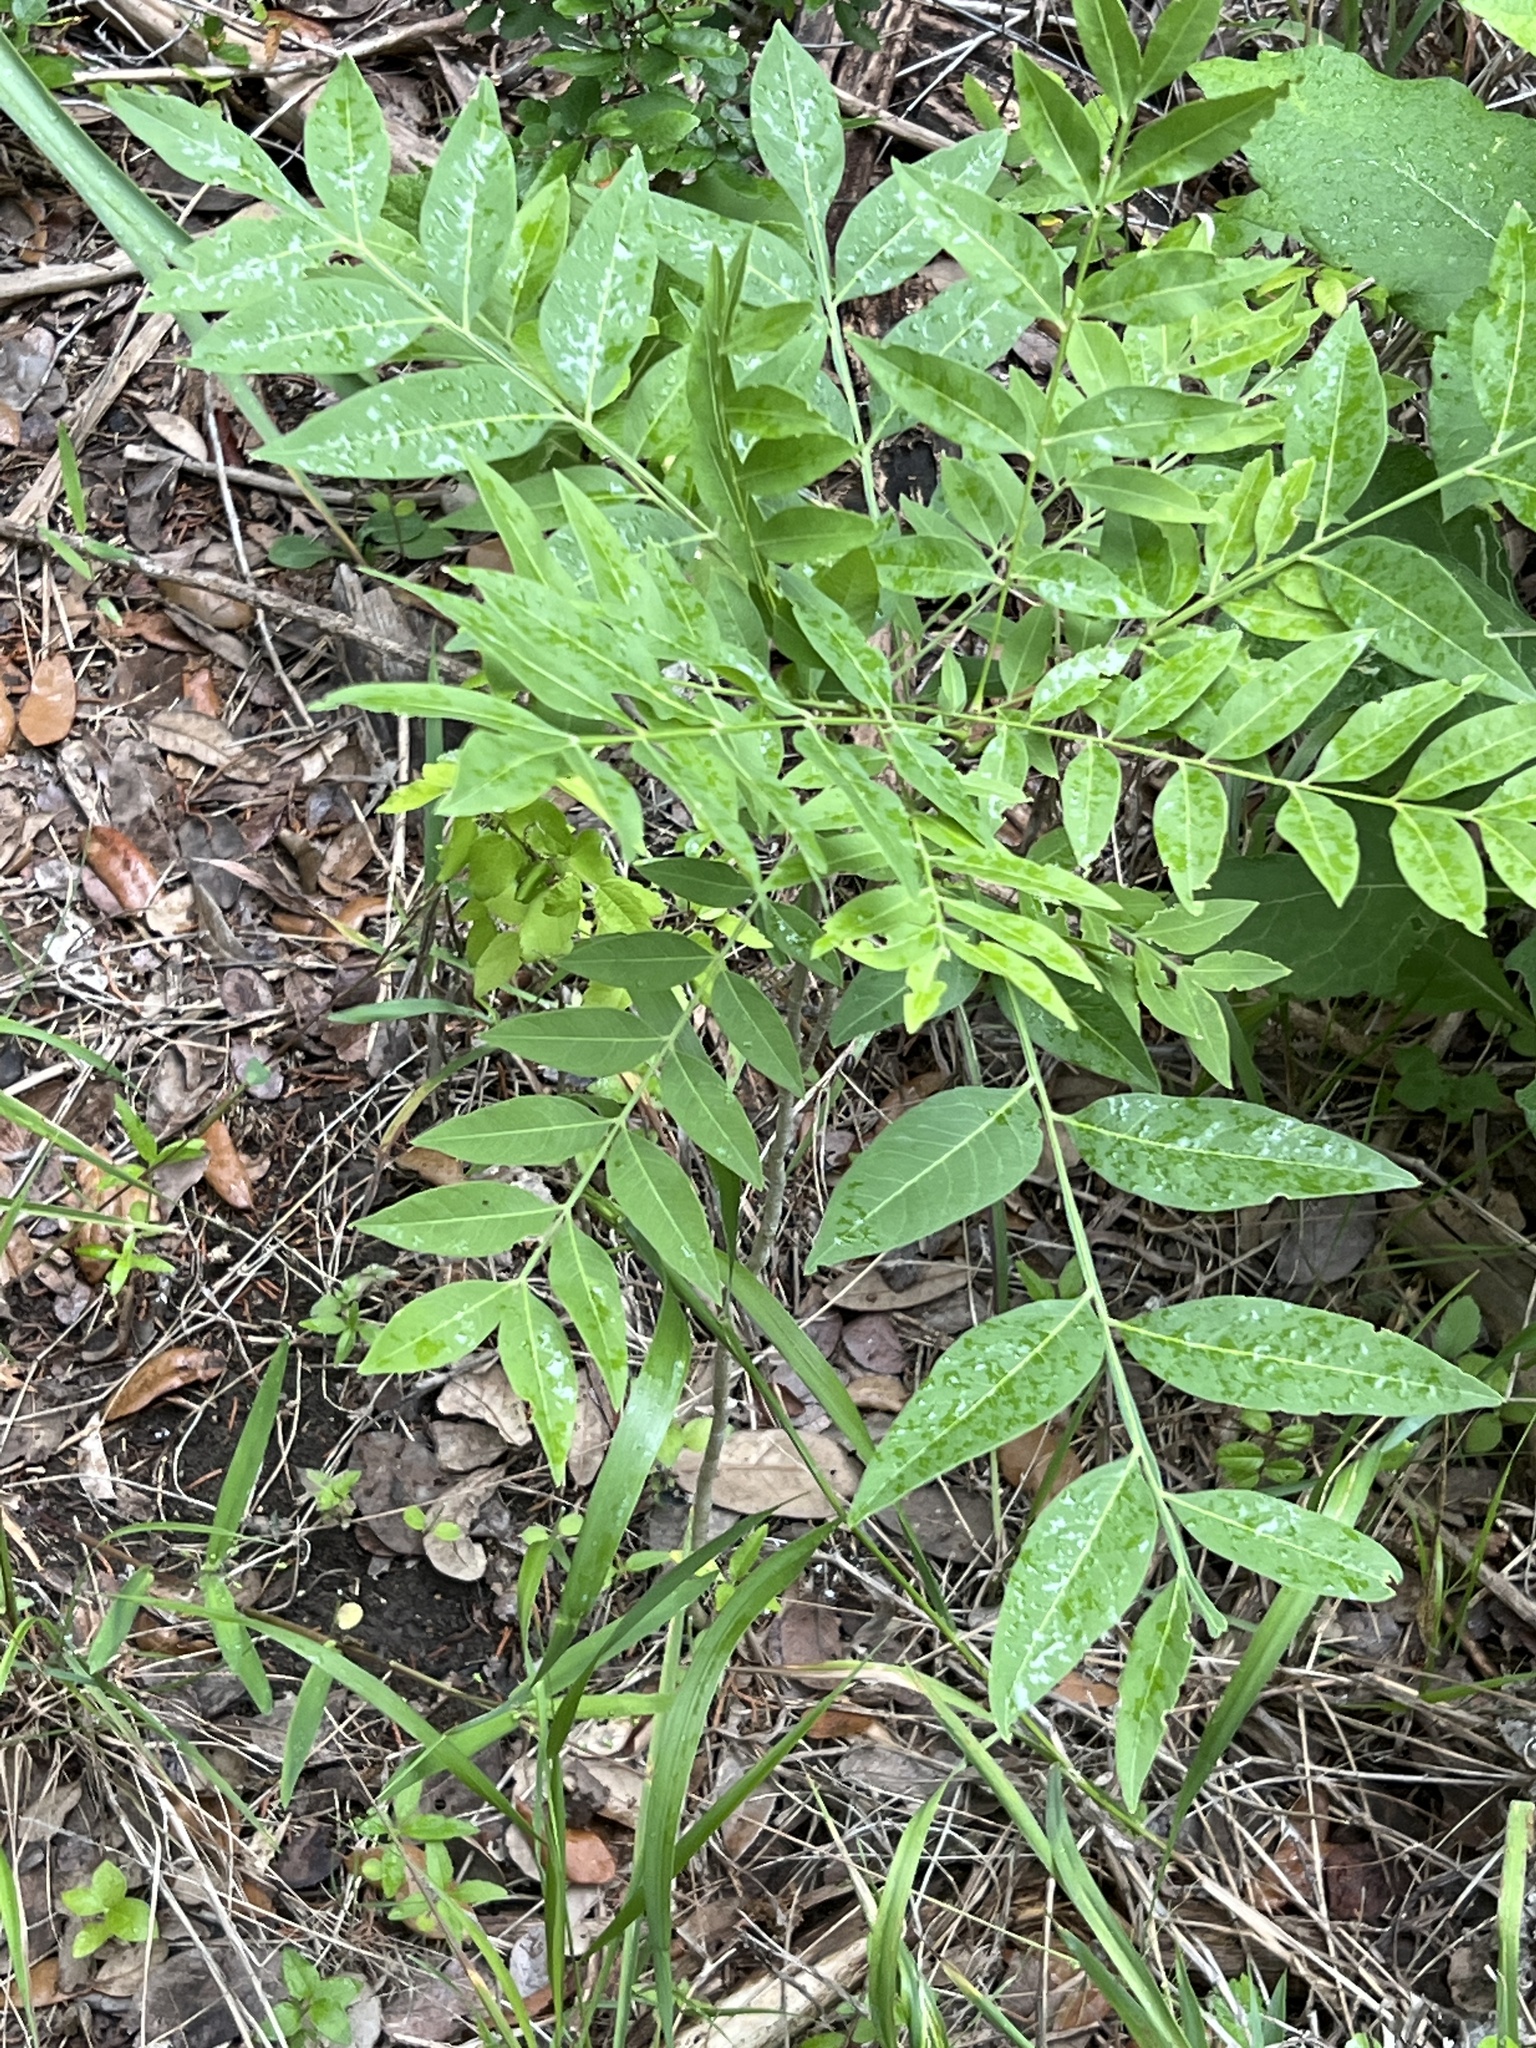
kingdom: Plantae
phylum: Tracheophyta
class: Magnoliopsida
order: Sapindales
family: Sapindaceae
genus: Sapindus
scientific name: Sapindus drummondii
